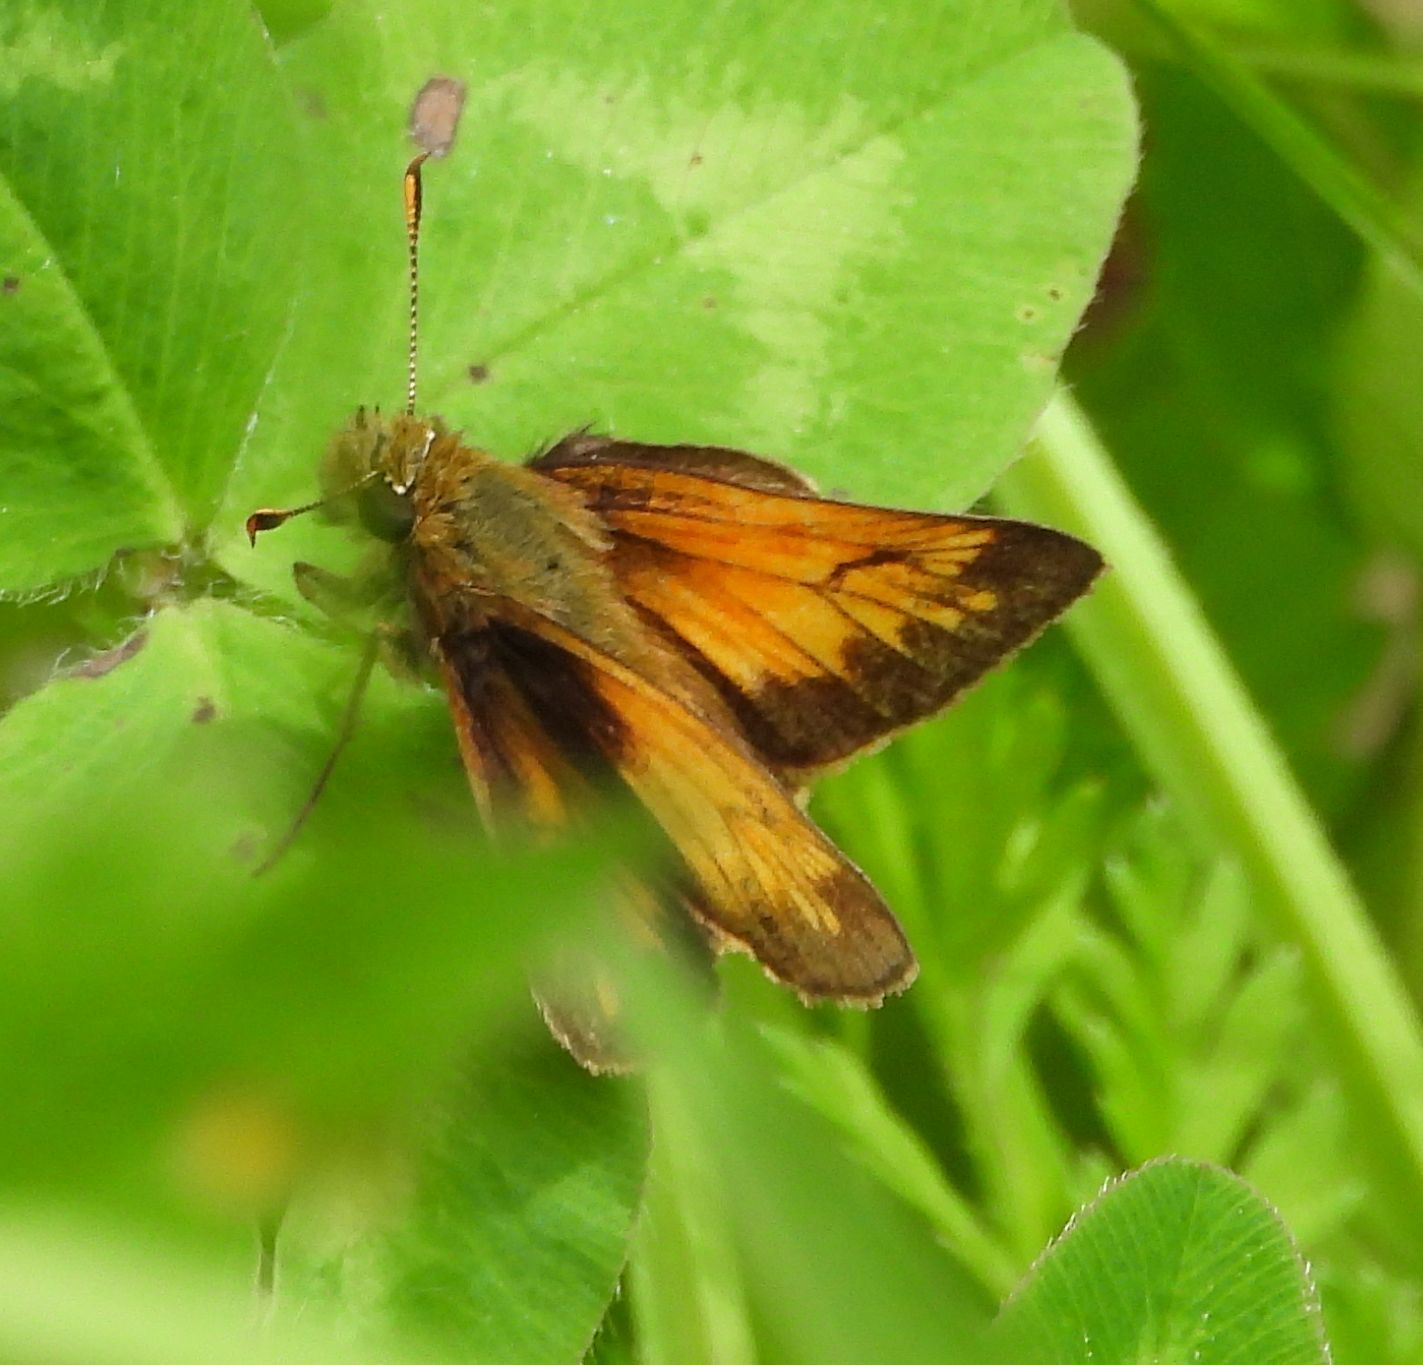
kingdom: Animalia
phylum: Arthropoda
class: Insecta
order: Lepidoptera
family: Hesperiidae
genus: Lon
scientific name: Lon hobomok
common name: Hobomok skipper
